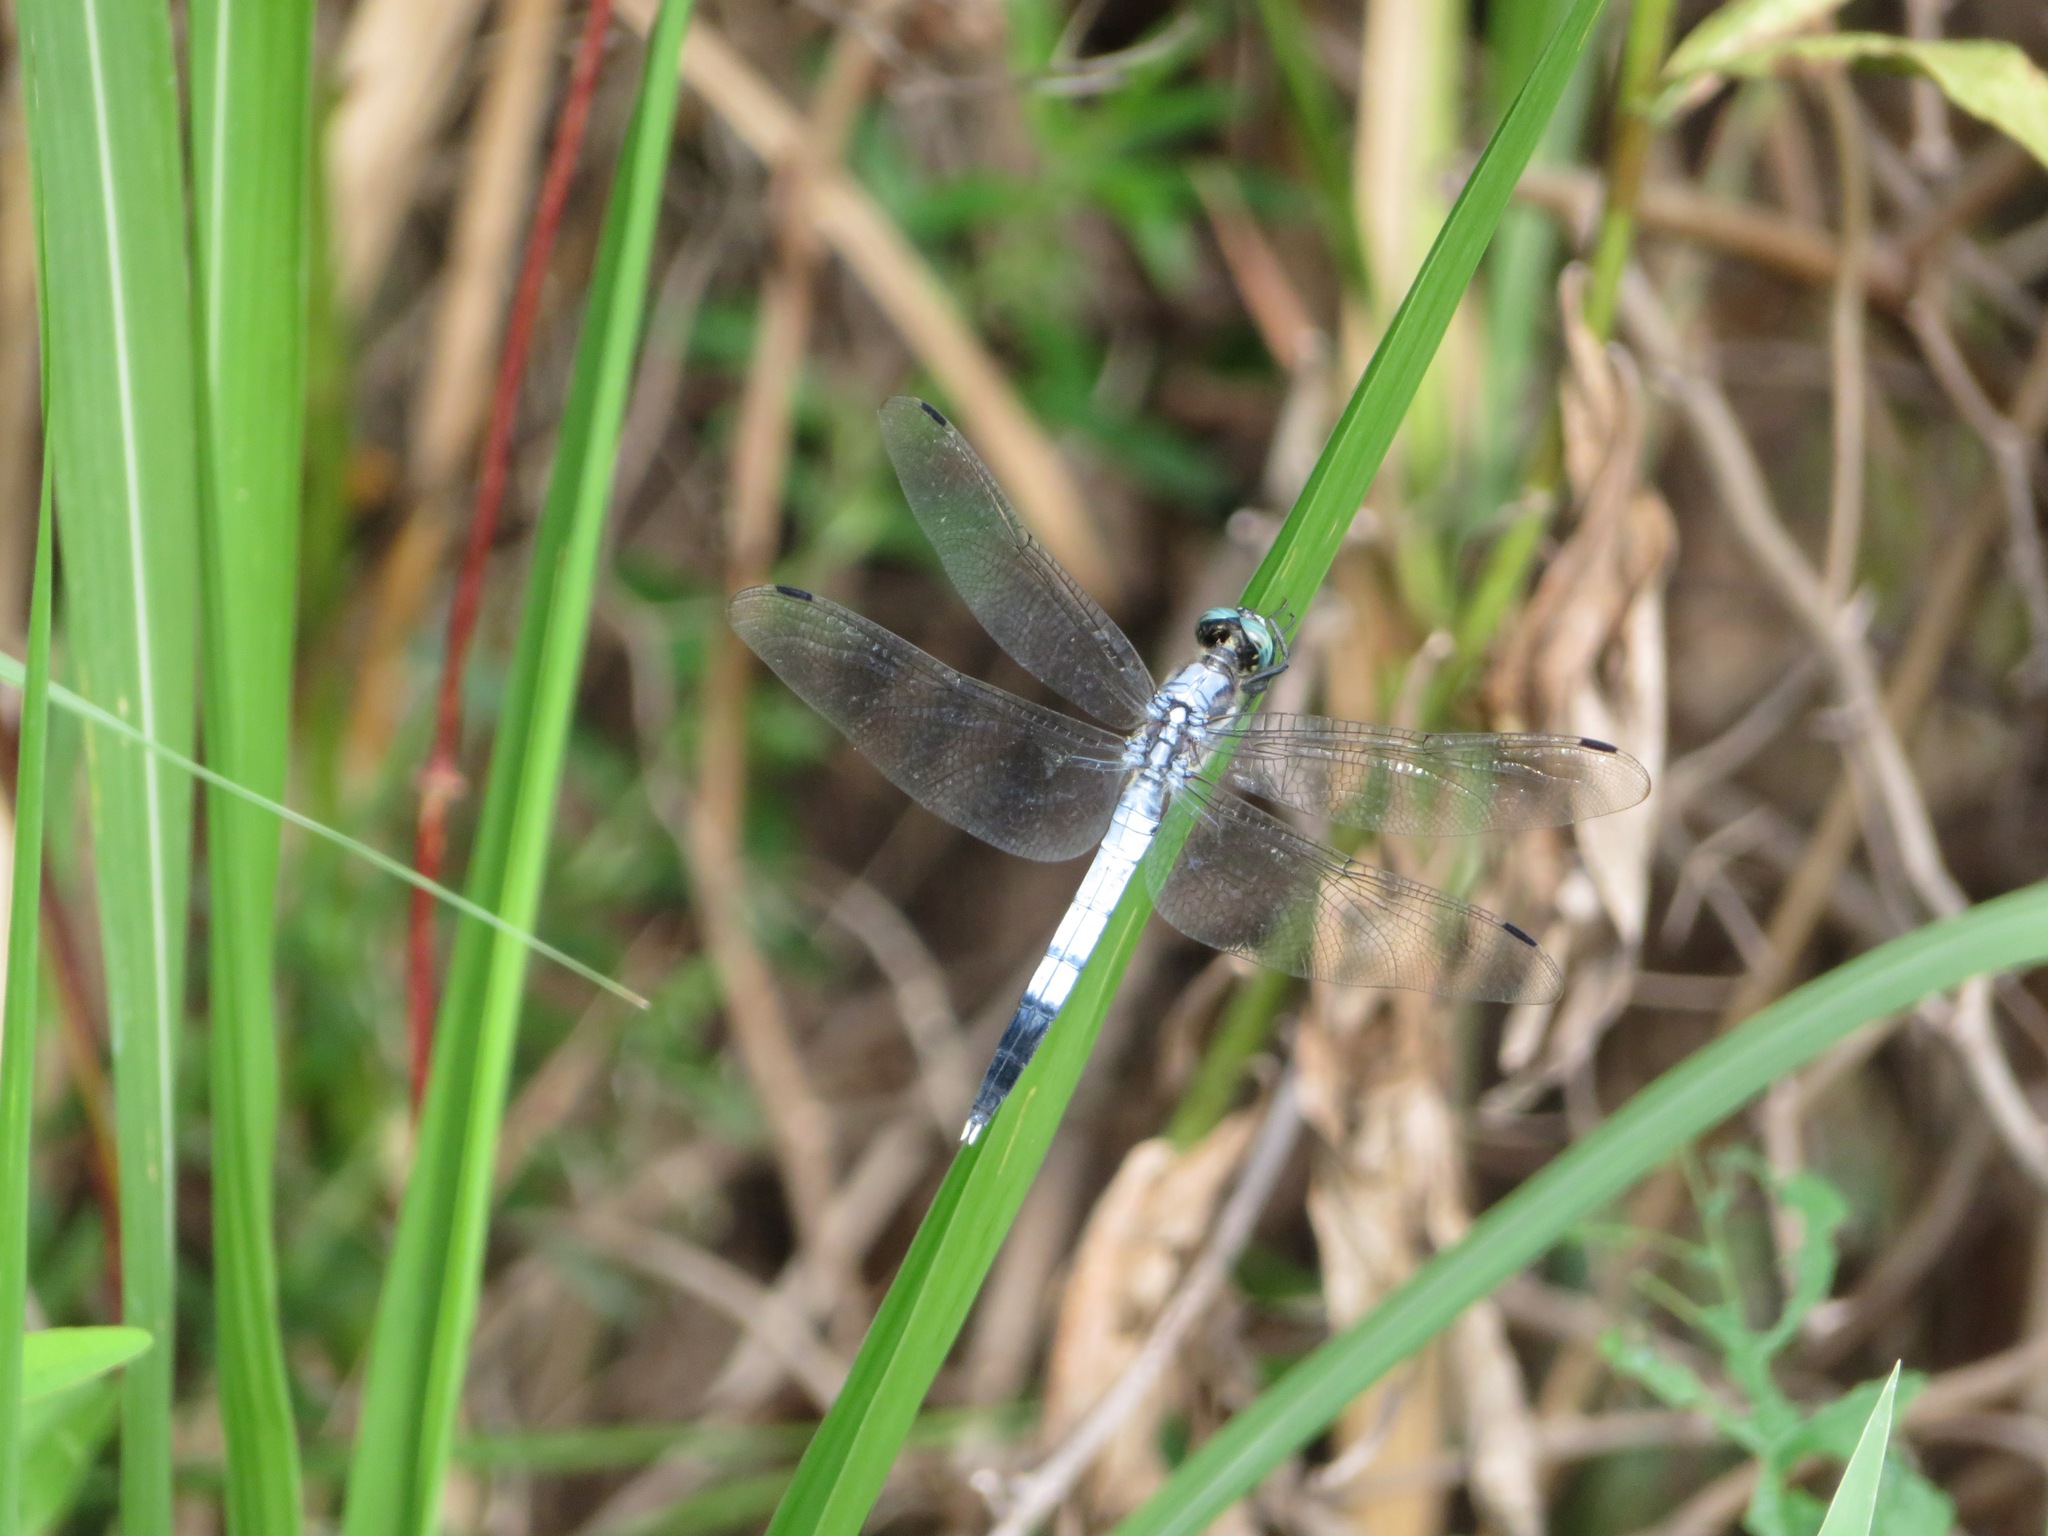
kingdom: Animalia
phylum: Arthropoda
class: Insecta
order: Odonata
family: Libellulidae
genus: Orthetrum
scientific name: Orthetrum albistylum
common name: White-tailed skimmer
